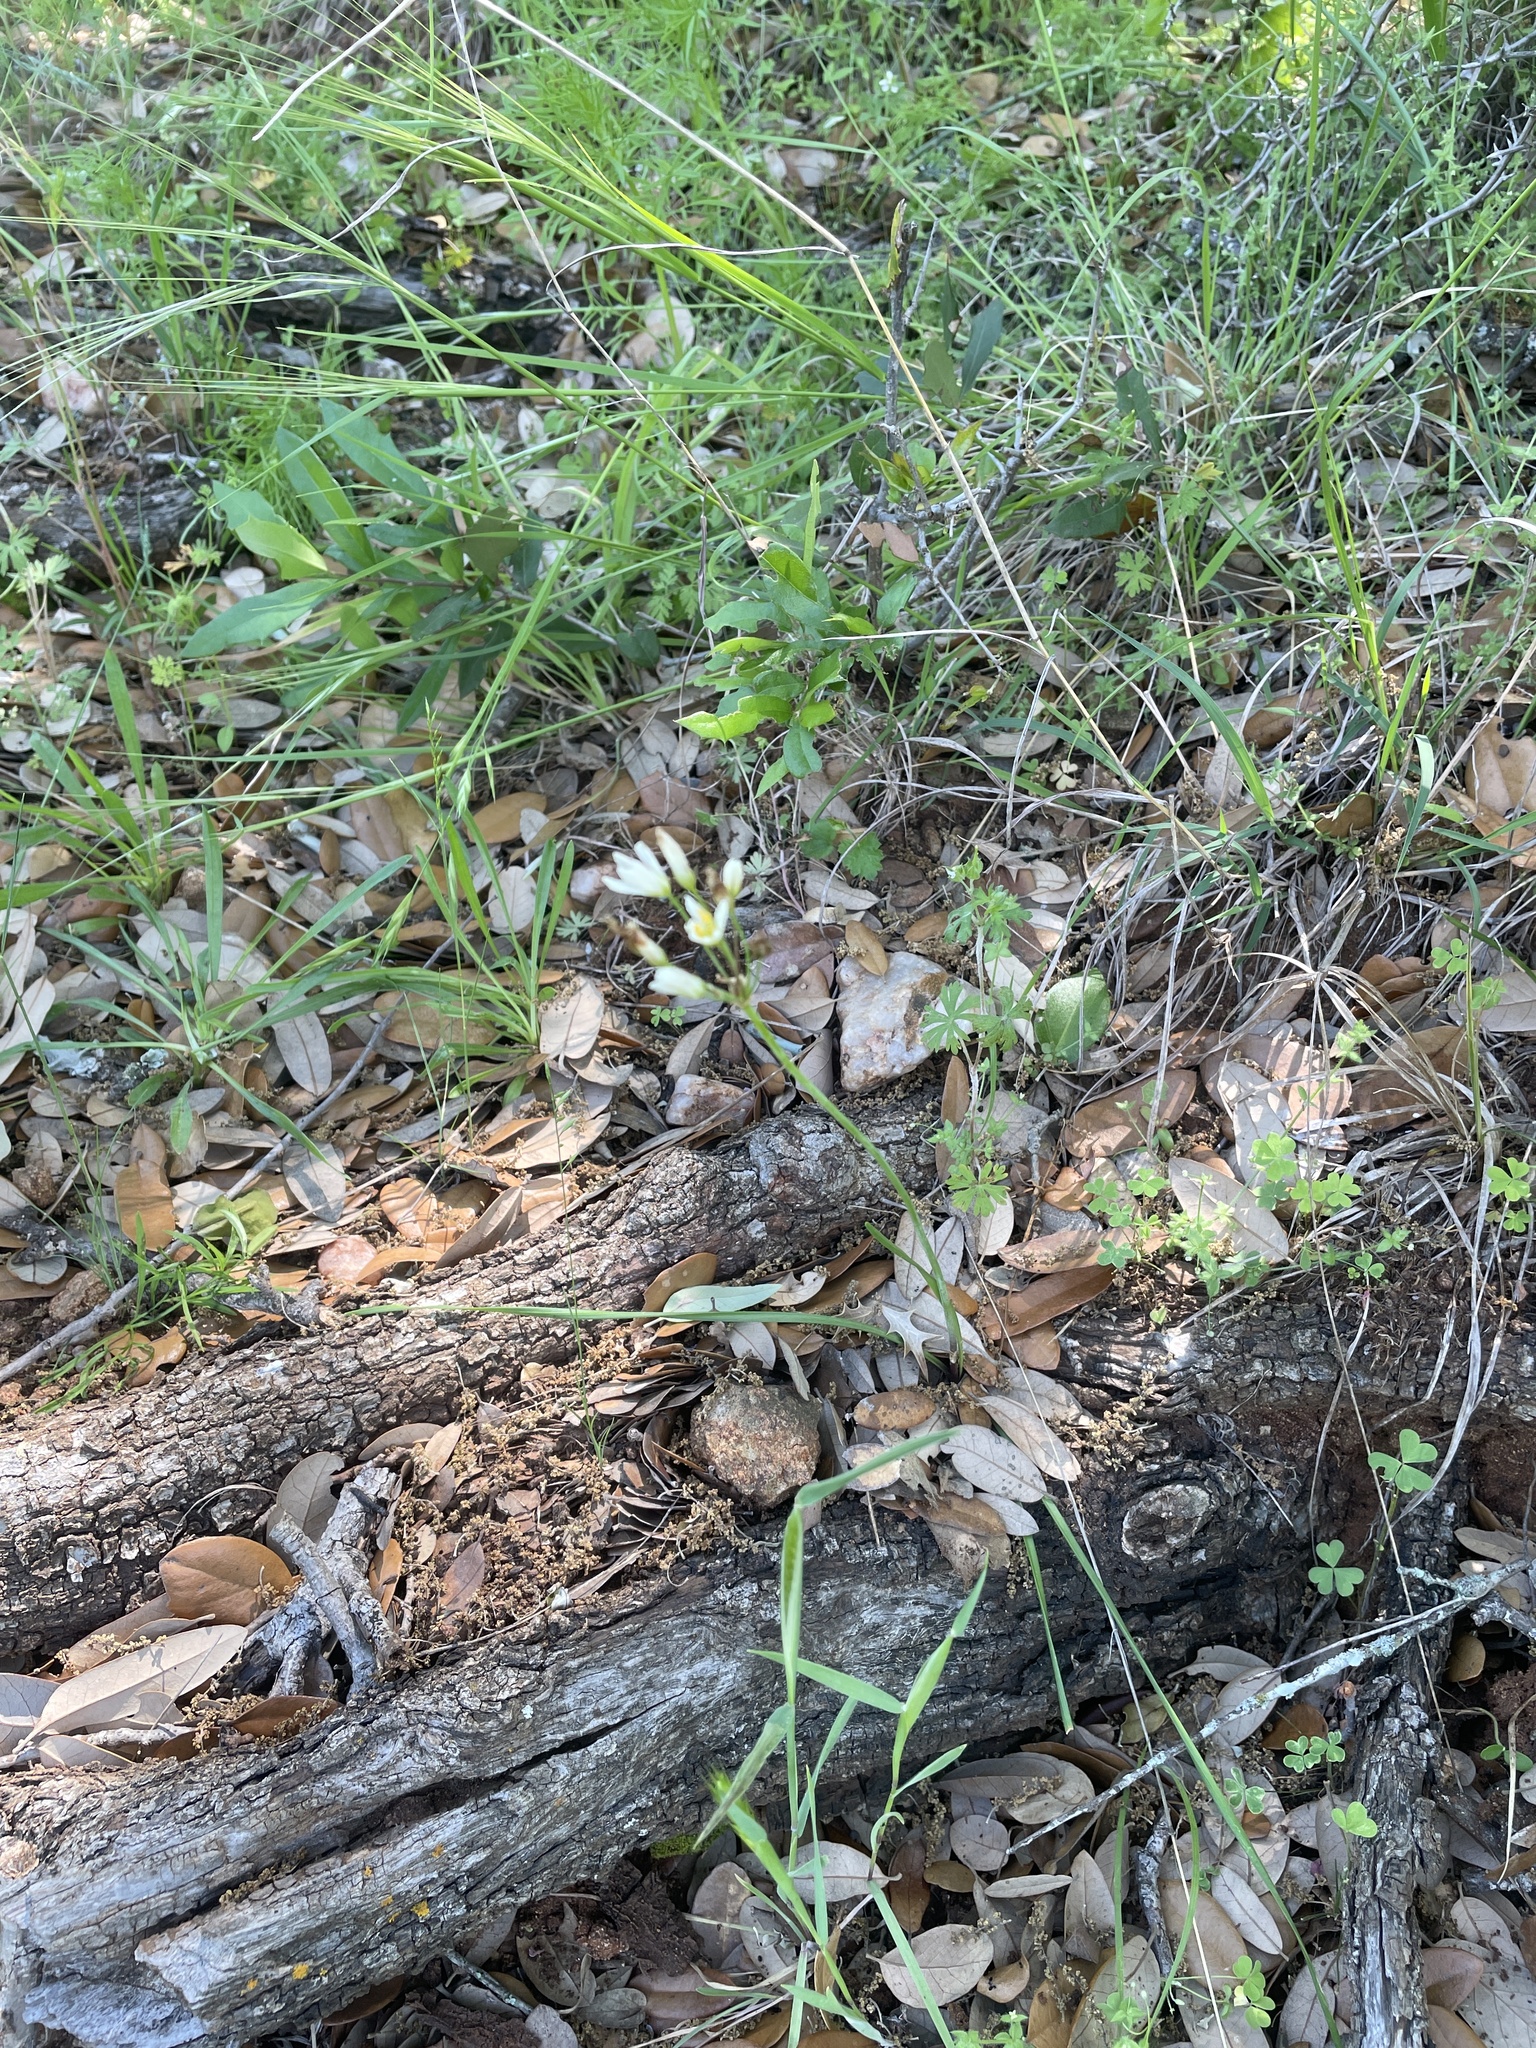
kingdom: Plantae
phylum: Tracheophyta
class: Liliopsida
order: Asparagales
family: Amaryllidaceae
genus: Nothoscordum
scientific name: Nothoscordum bivalve
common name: Crow-poison
